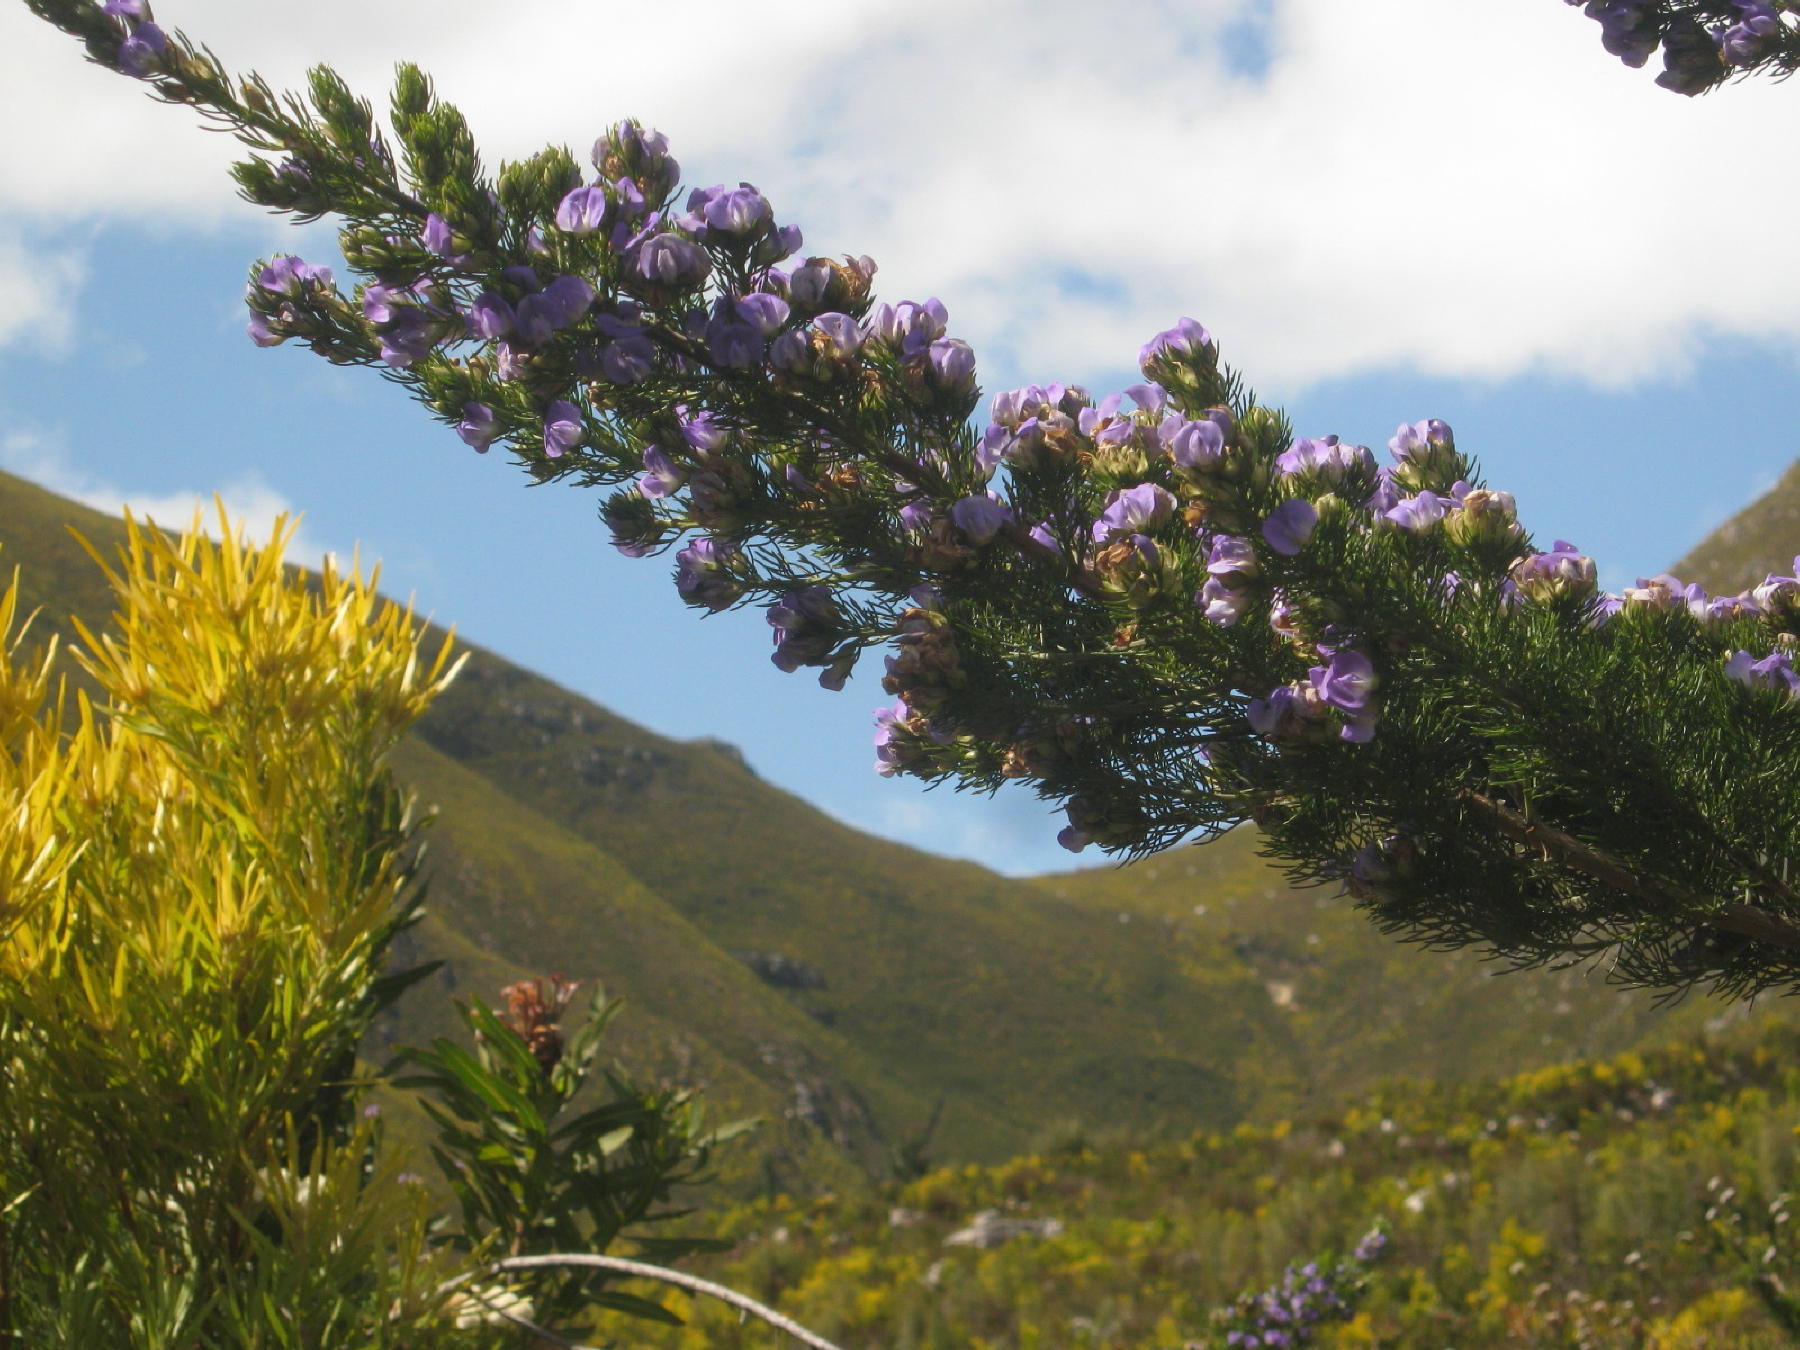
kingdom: Plantae
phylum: Tracheophyta
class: Magnoliopsida
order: Fabales
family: Fabaceae
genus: Psoralea
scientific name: Psoralea speciosa
